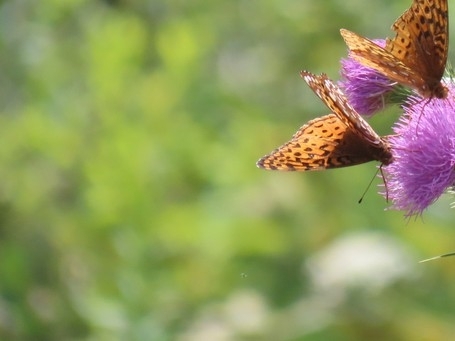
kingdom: Animalia
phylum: Arthropoda
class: Insecta
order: Lepidoptera
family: Nymphalidae
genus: Speyeria
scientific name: Speyeria aphrodite
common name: Aphrodite friitllary
